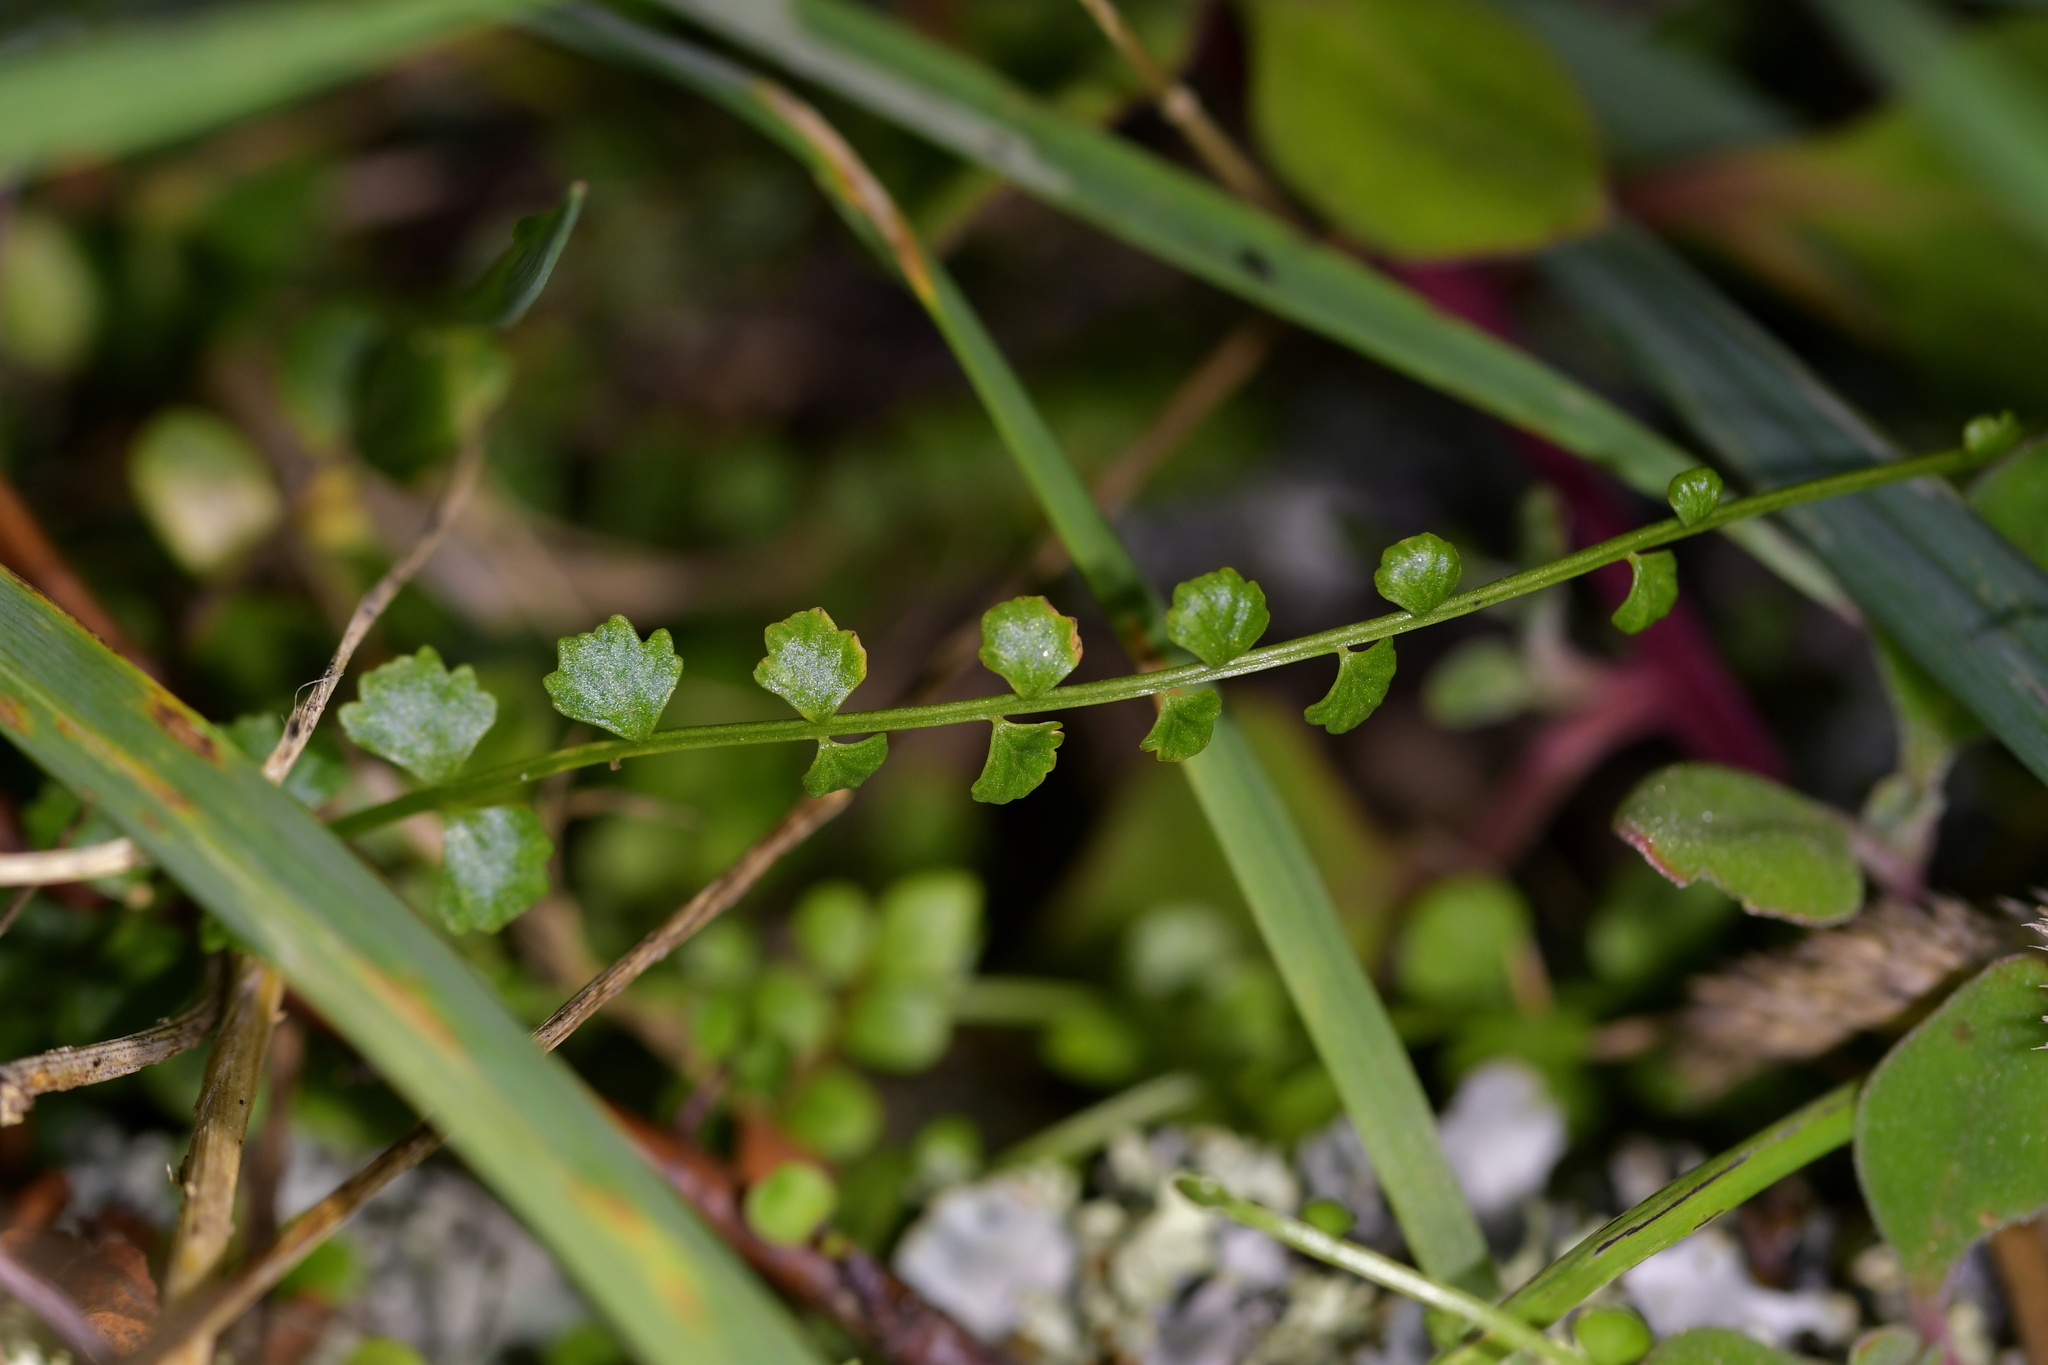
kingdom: Plantae
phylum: Tracheophyta
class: Polypodiopsida
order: Polypodiales
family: Aspleniaceae
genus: Asplenium
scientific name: Asplenium flabellifolium
